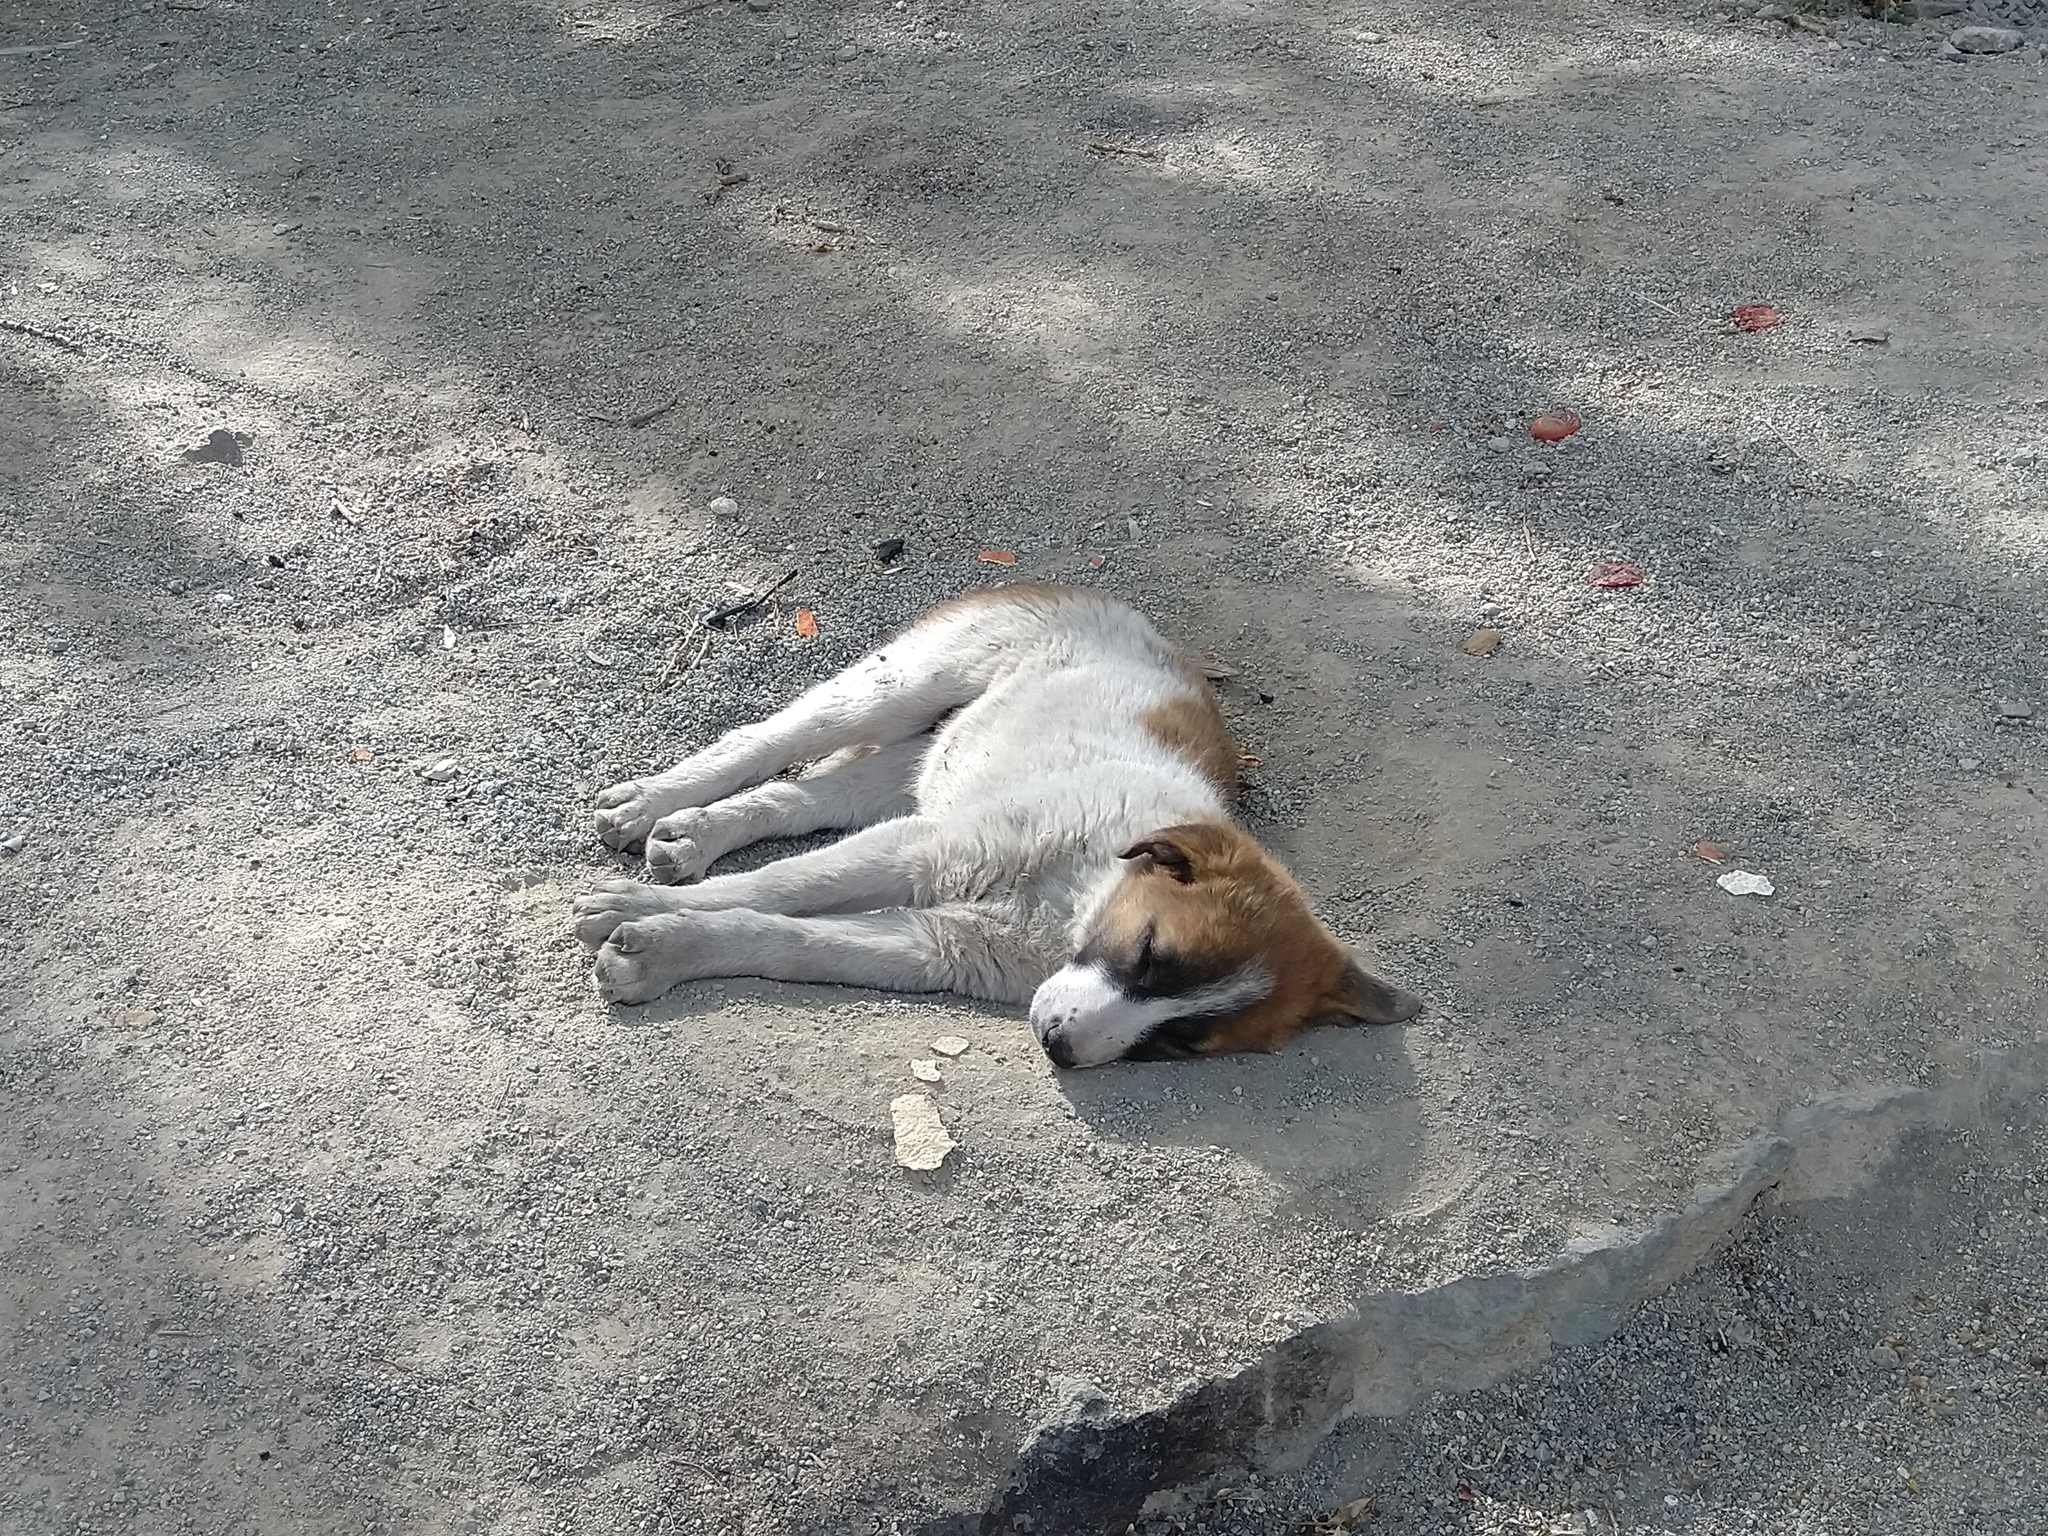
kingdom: Animalia
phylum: Chordata
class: Mammalia
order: Carnivora
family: Canidae
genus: Canis
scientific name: Canis lupus
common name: Gray wolf
